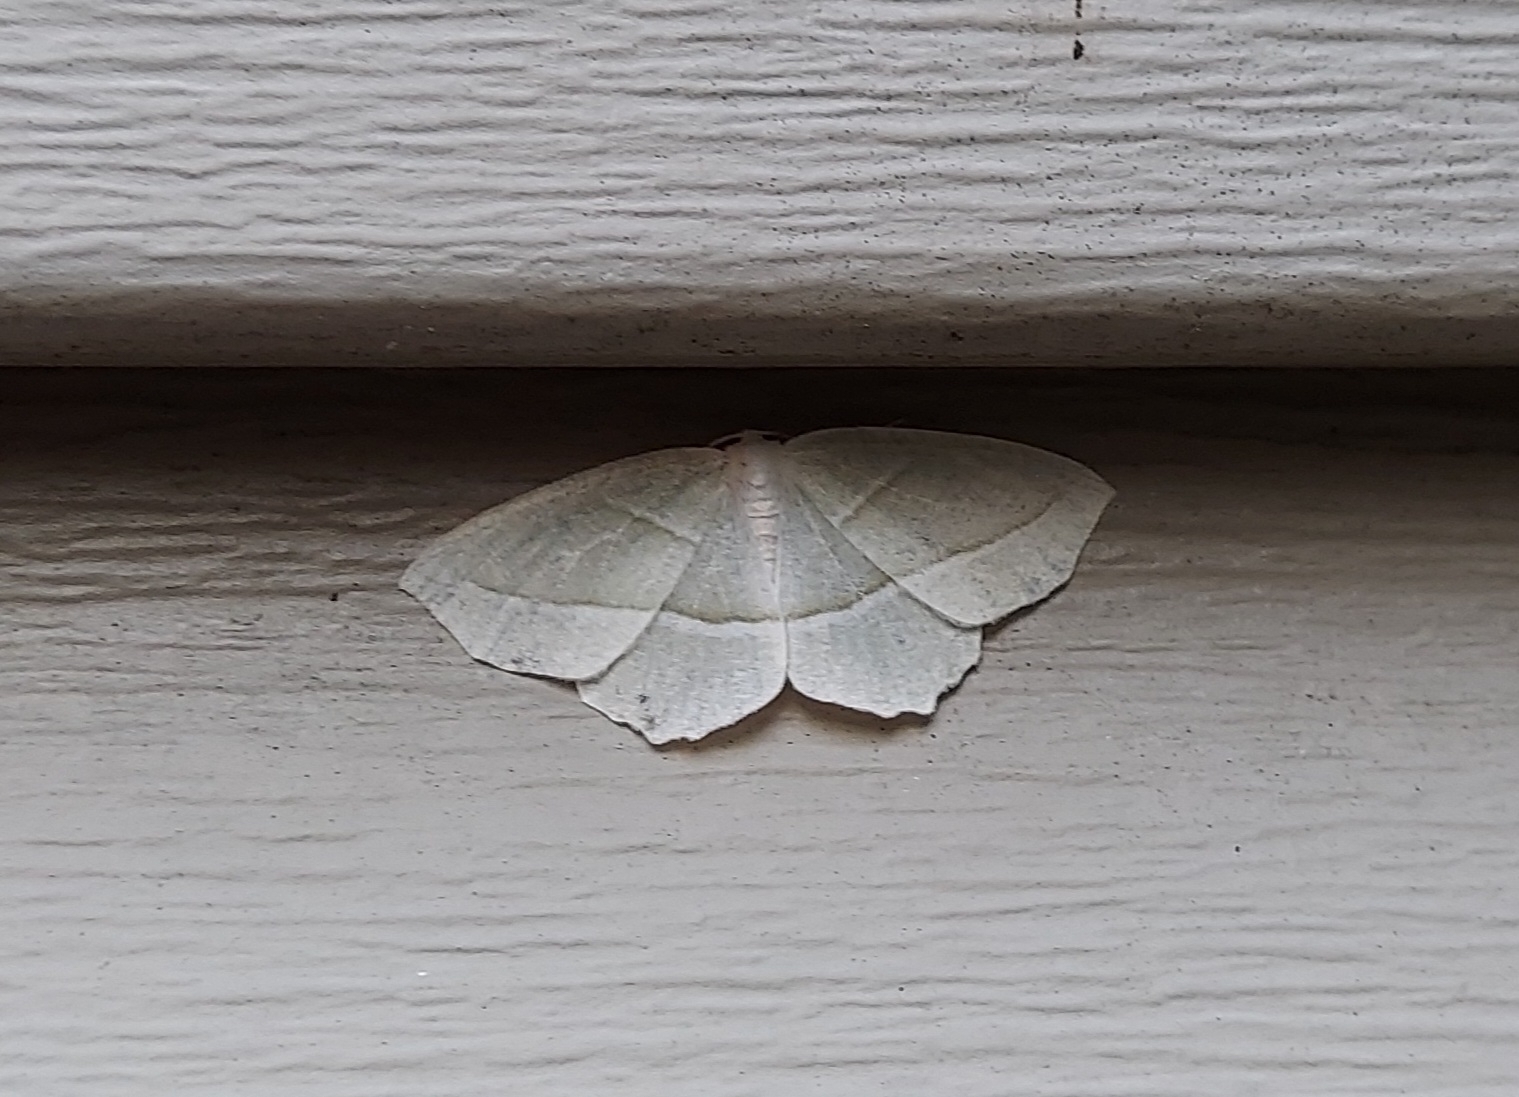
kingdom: Animalia
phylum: Arthropoda
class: Insecta
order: Lepidoptera
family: Geometridae
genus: Campaea
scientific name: Campaea perlata
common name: Fringed looper
